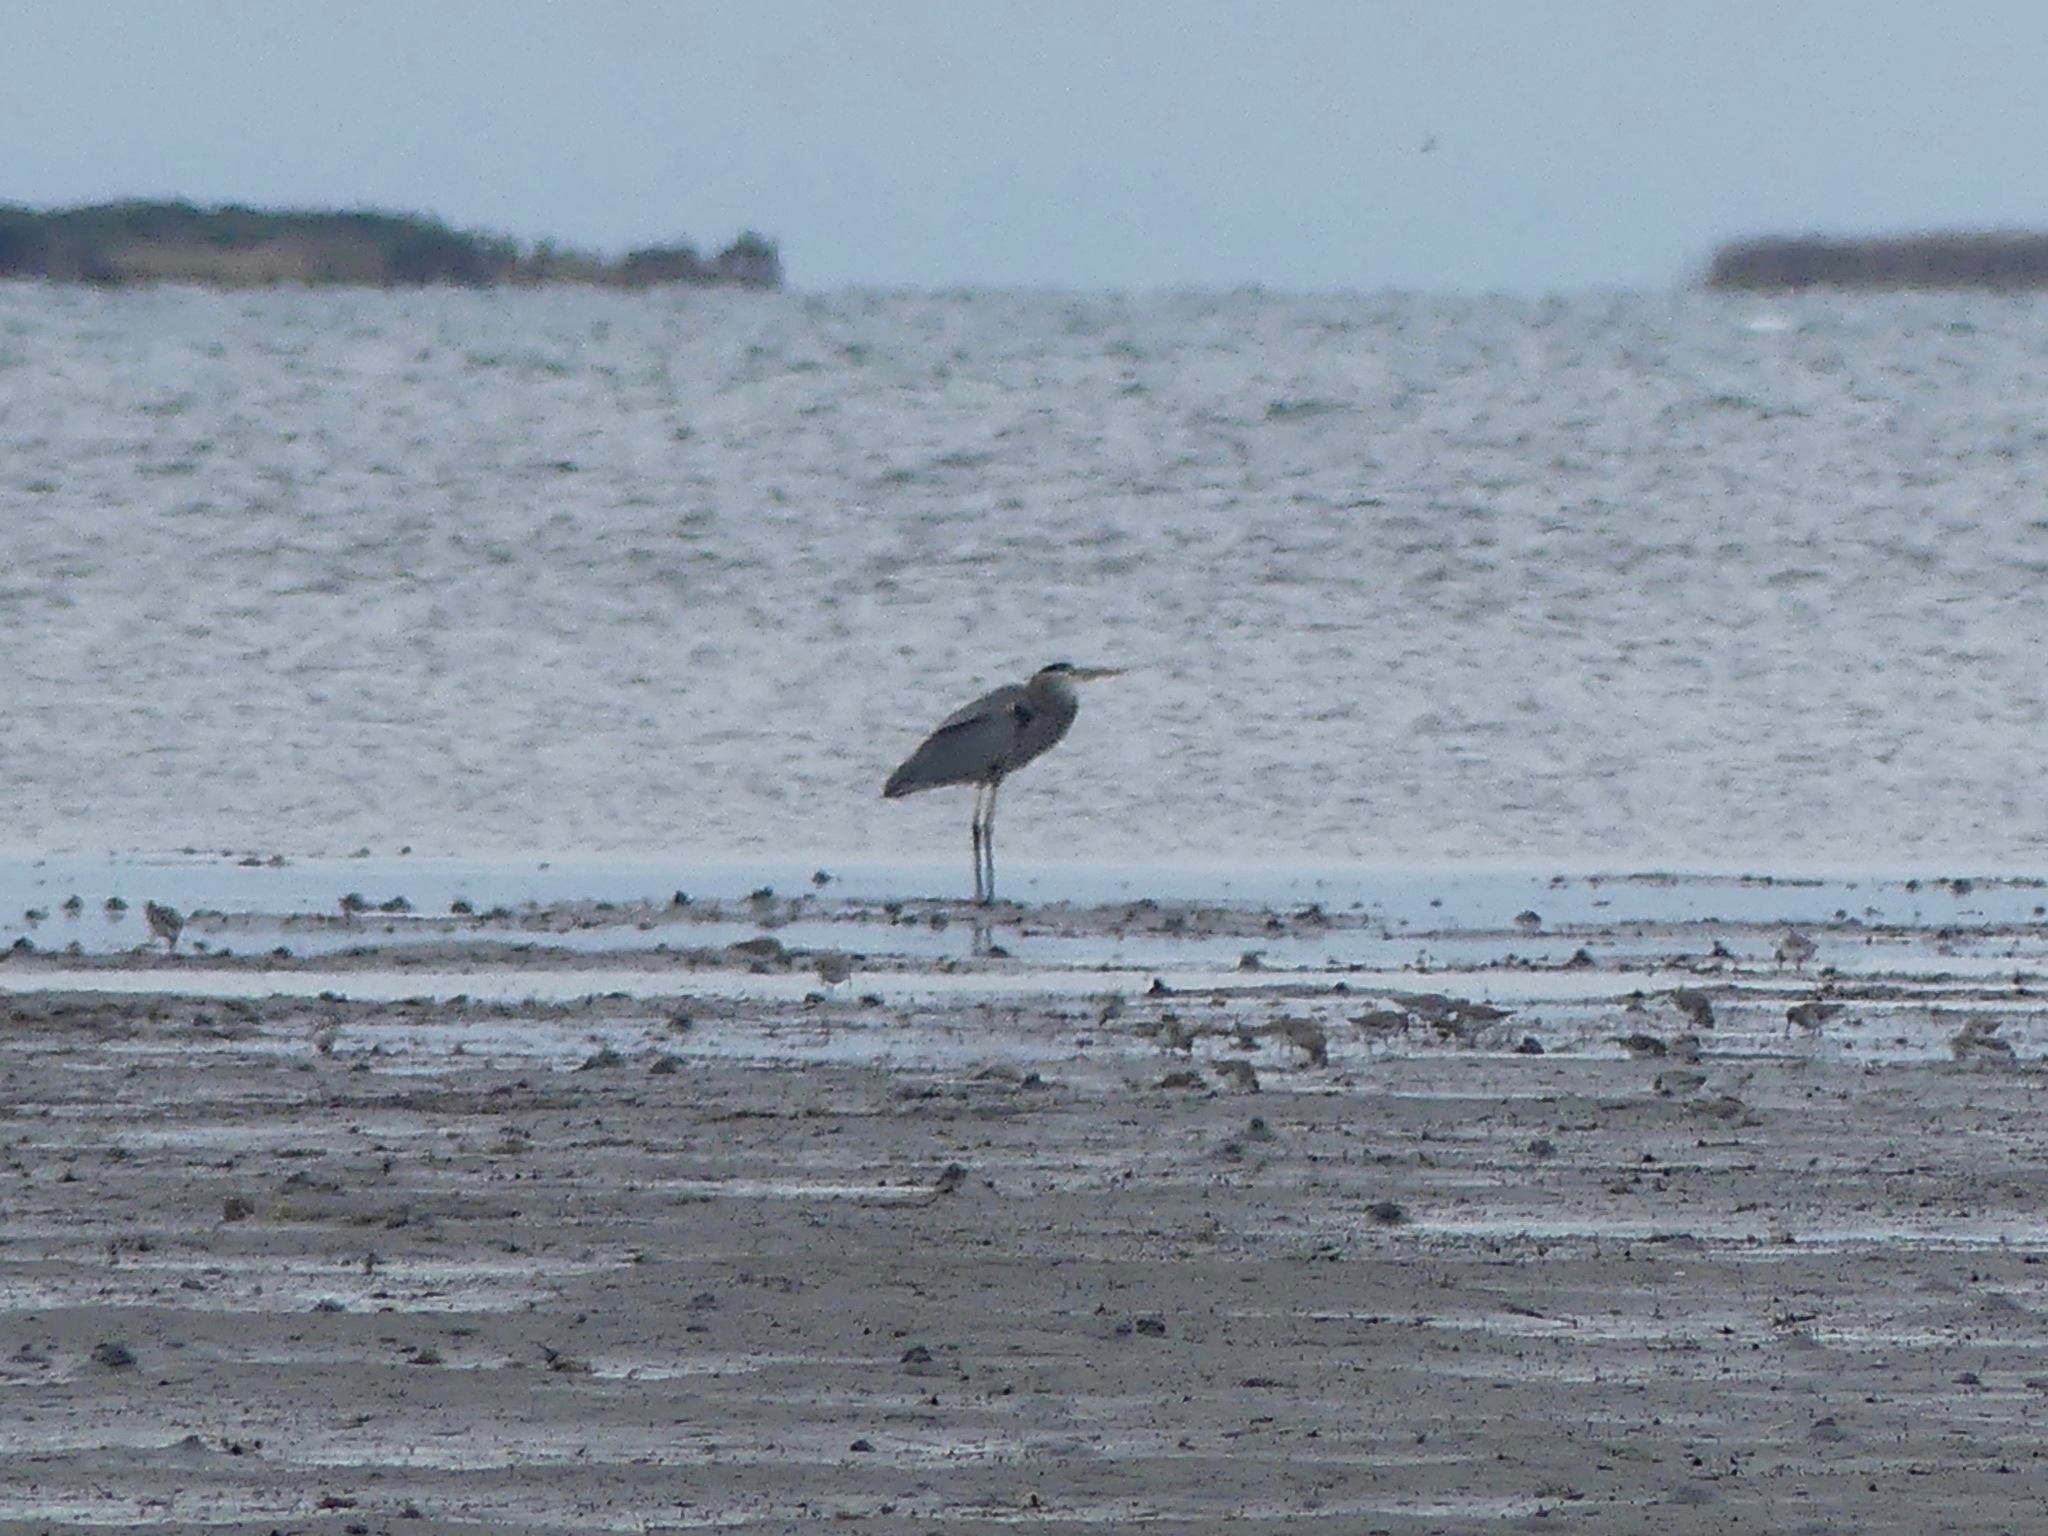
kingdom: Animalia
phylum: Chordata
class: Aves
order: Pelecaniformes
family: Ardeidae
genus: Ardea
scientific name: Ardea herodias
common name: Great blue heron
